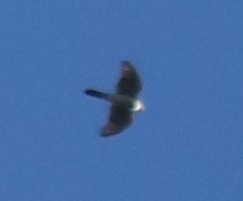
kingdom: Animalia
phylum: Chordata
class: Aves
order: Accipitriformes
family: Accipitridae
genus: Accipiter
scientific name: Accipiter
